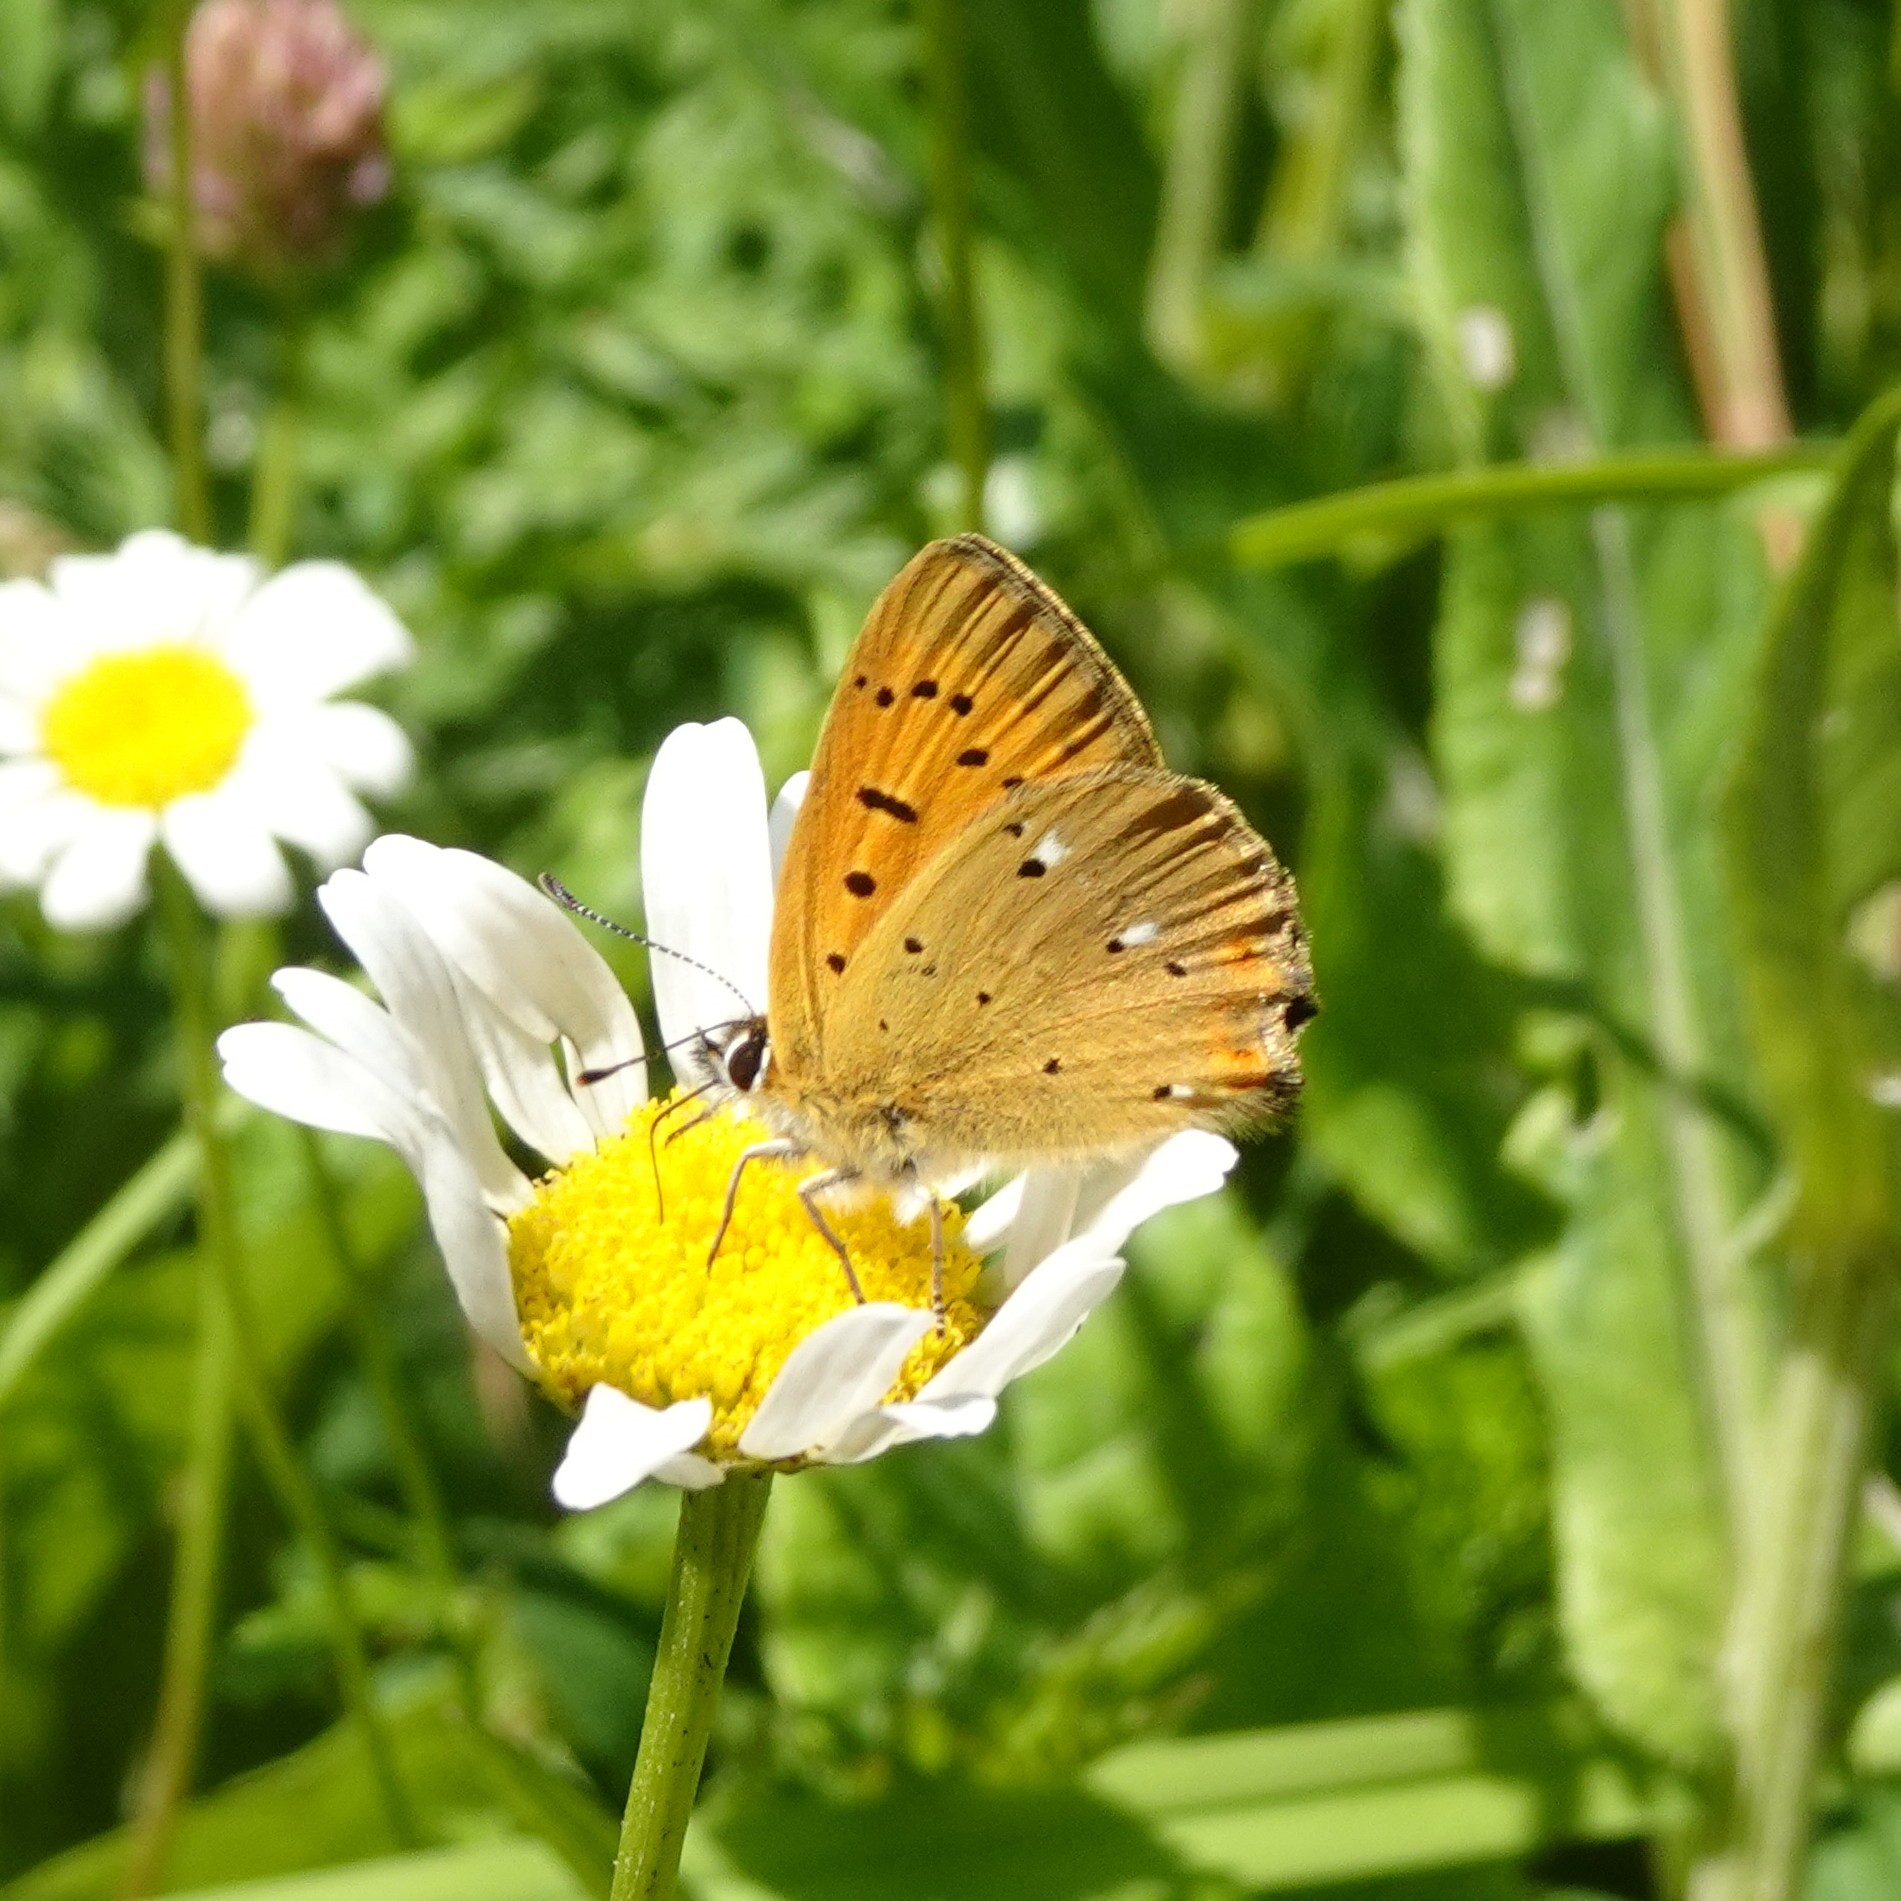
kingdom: Animalia
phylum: Arthropoda
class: Insecta
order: Lepidoptera
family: Lycaenidae
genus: Lycaena
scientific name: Lycaena virgaureae
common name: Scarce copper
